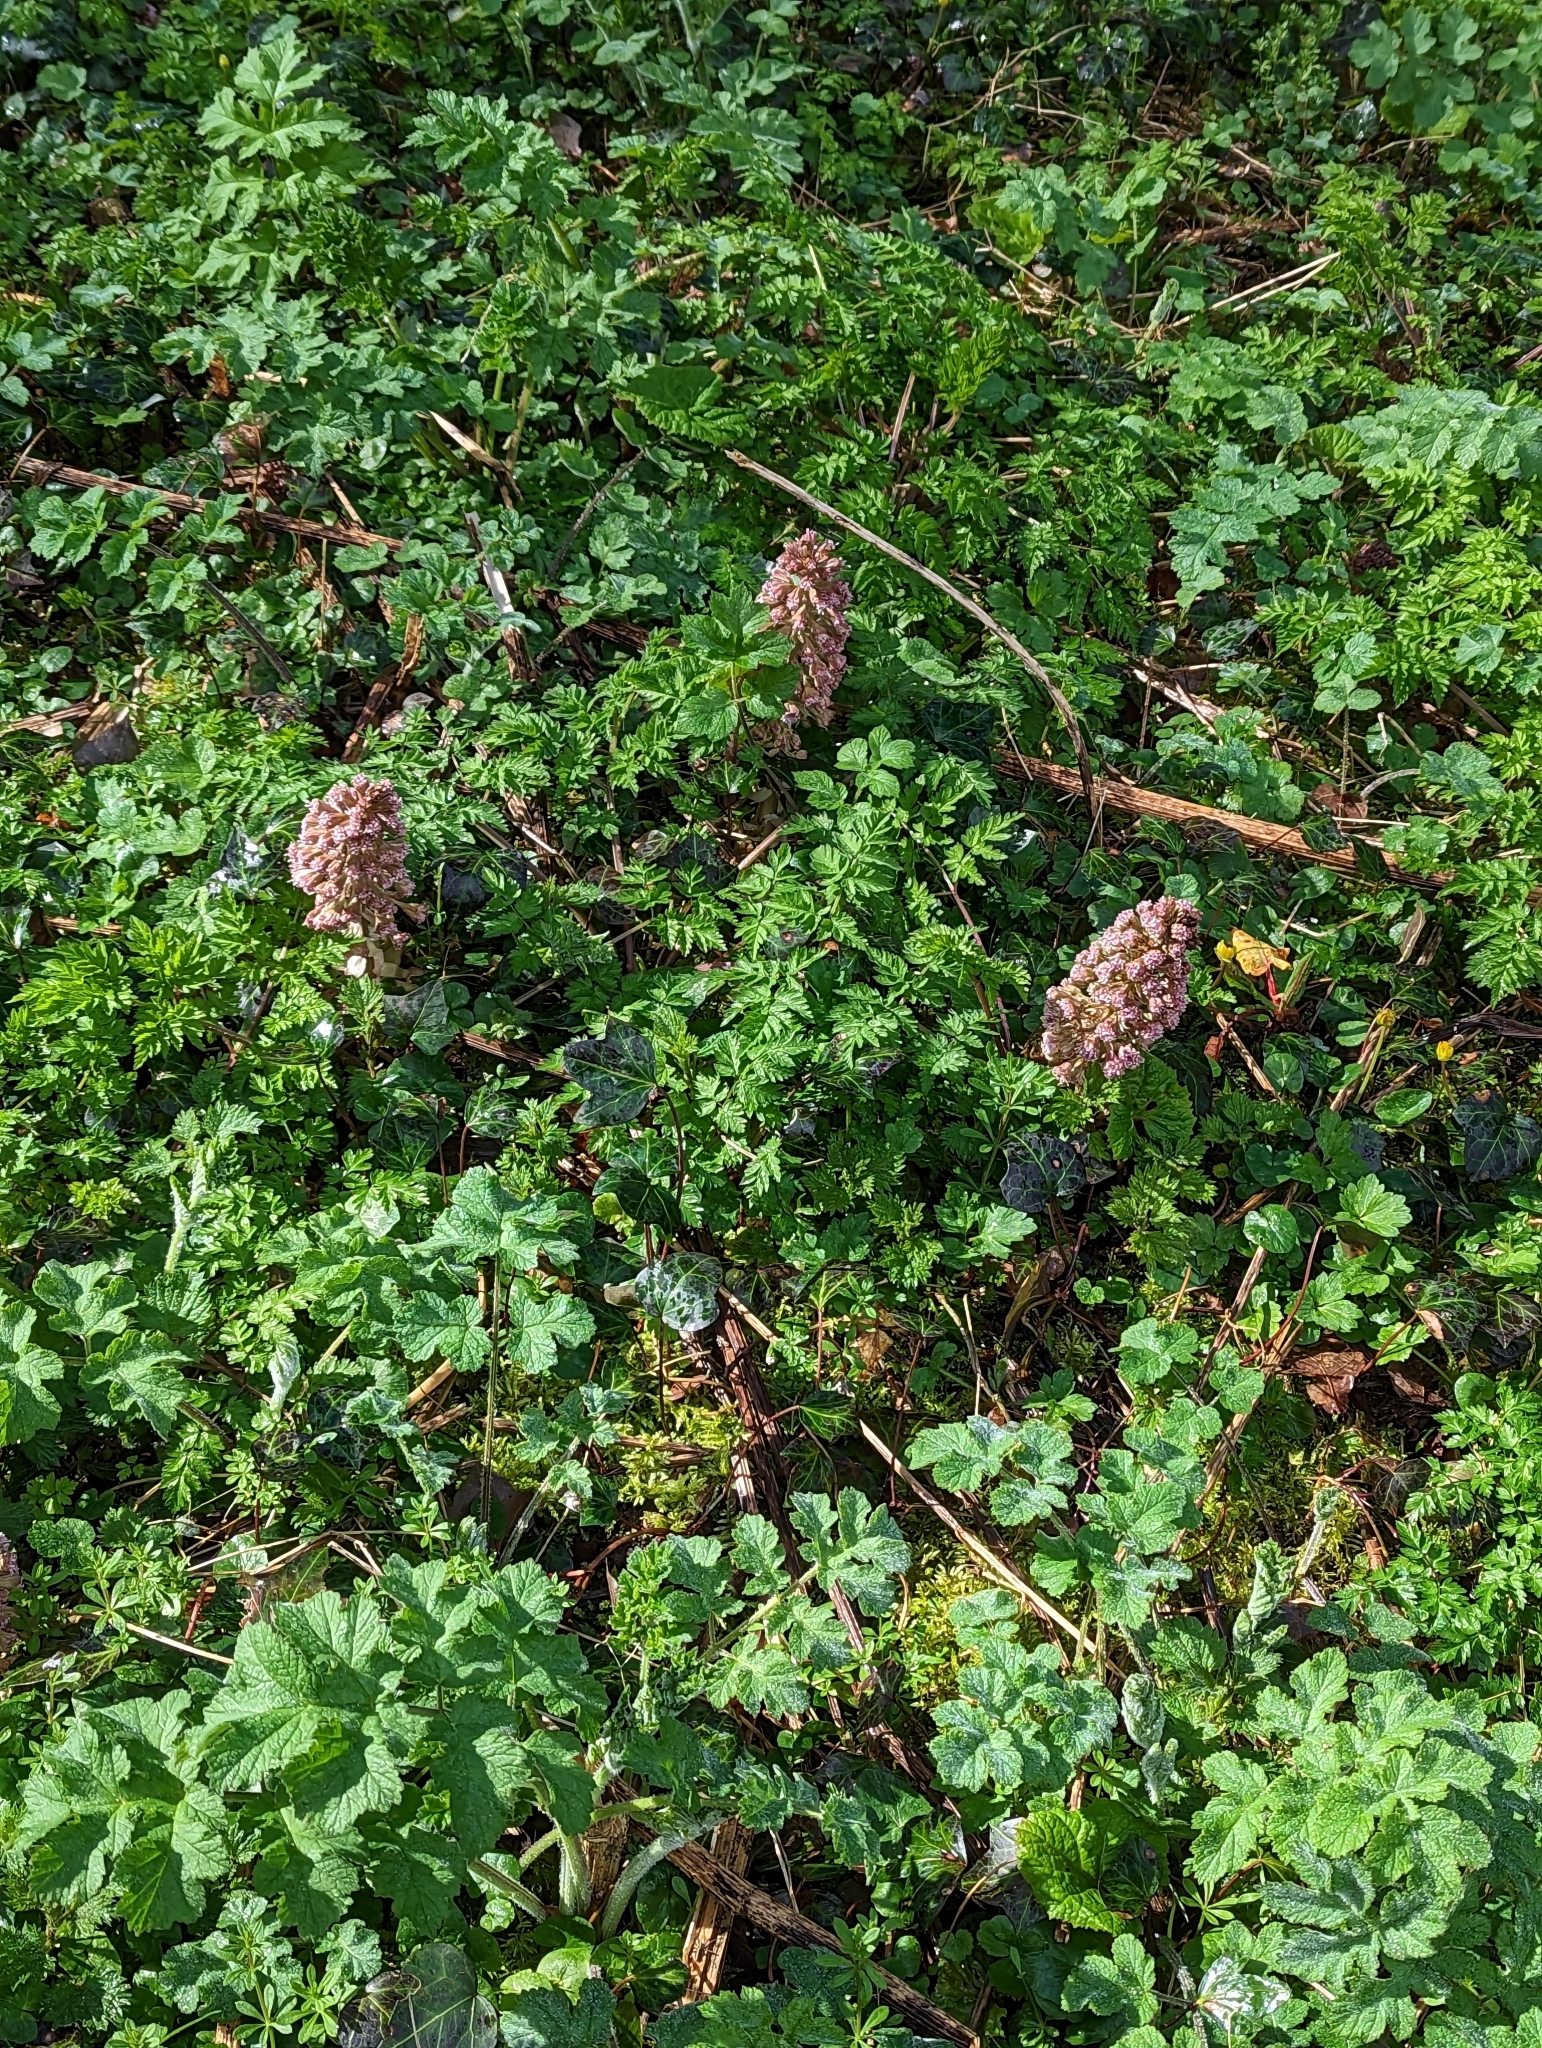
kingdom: Plantae
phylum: Tracheophyta
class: Magnoliopsida
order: Asterales
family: Asteraceae
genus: Petasites
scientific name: Petasites hybridus
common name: Butterbur
